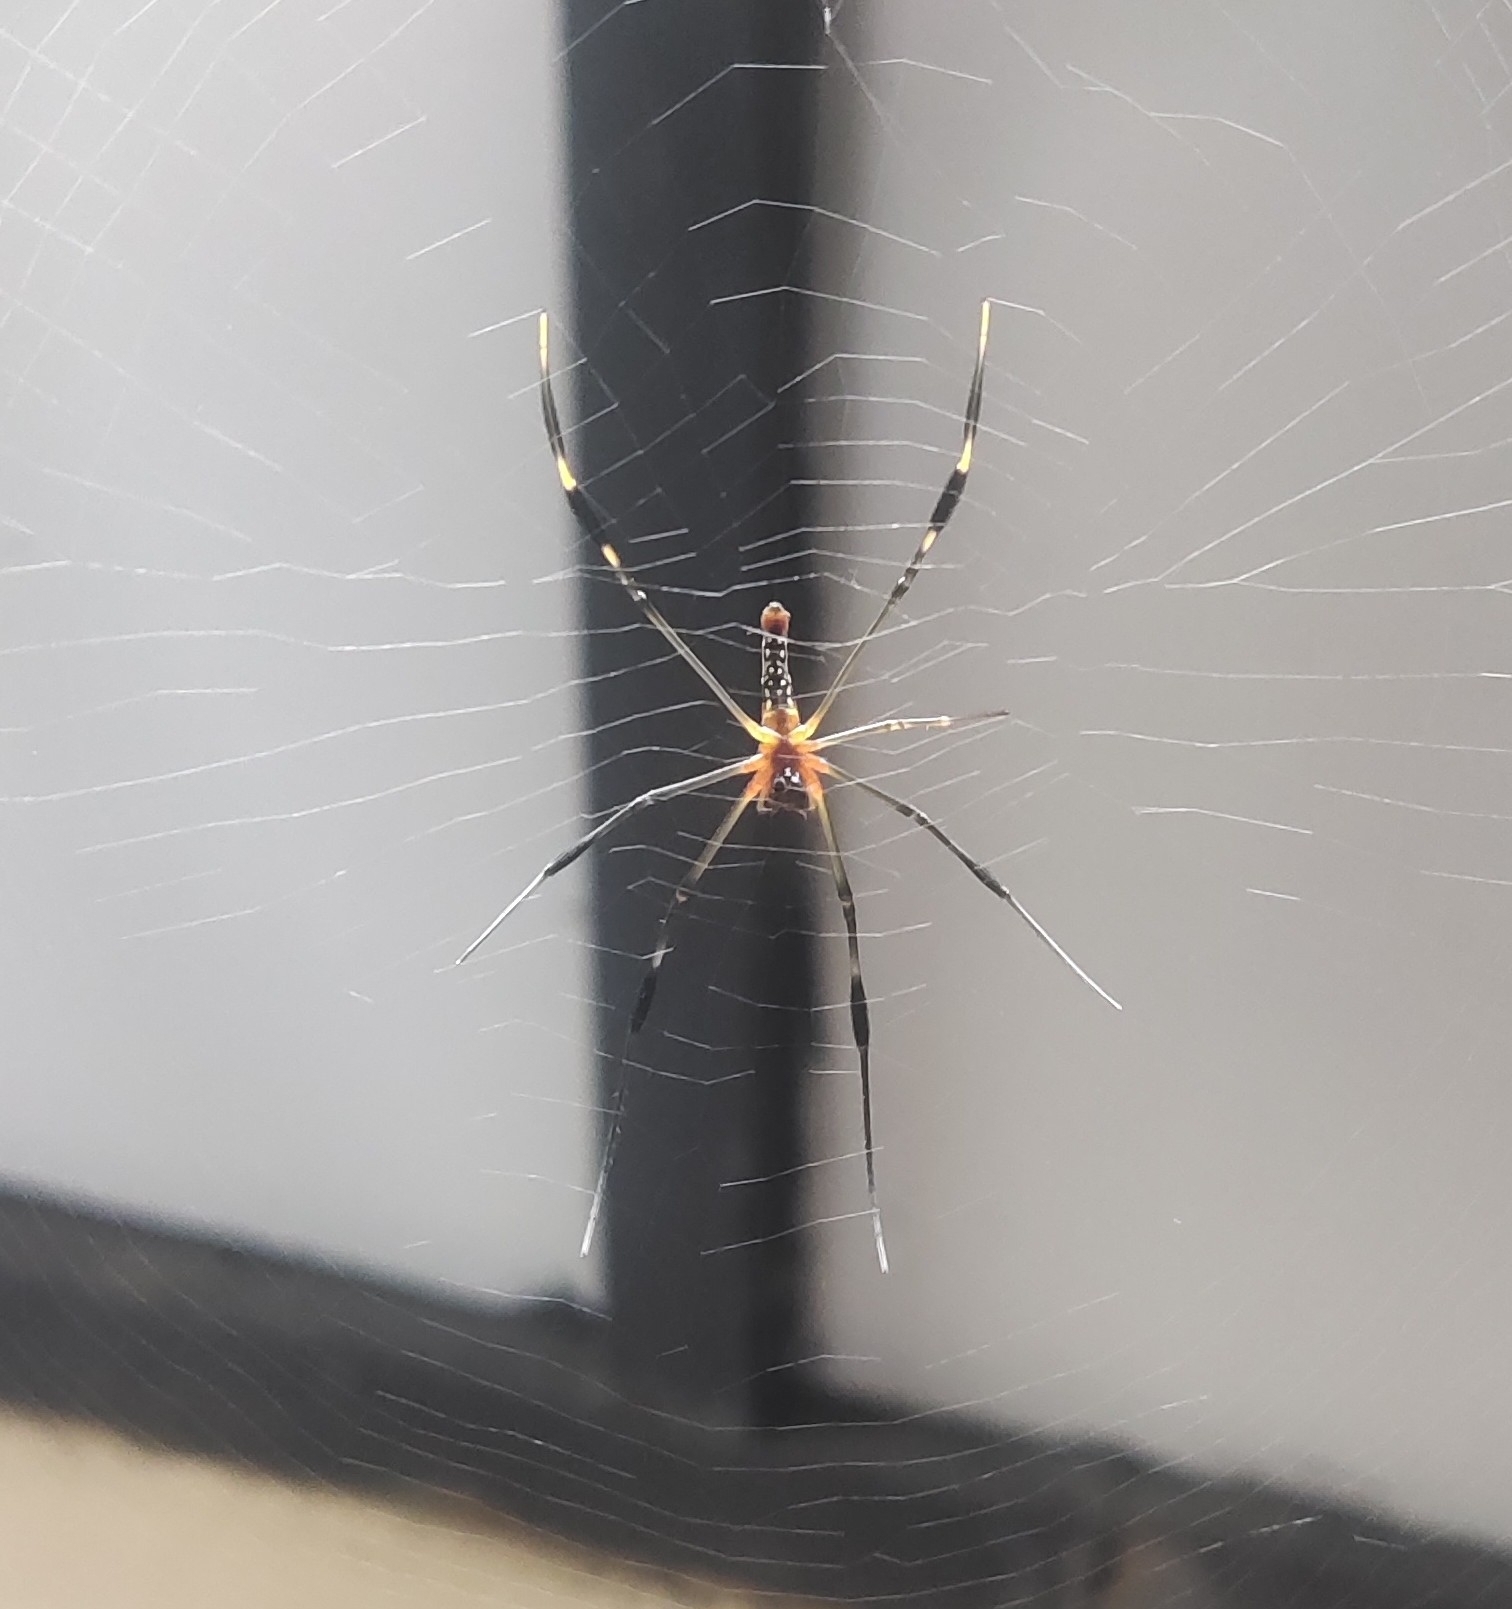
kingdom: Animalia
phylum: Arthropoda
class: Arachnida
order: Araneae
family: Araneidae
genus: Nephila
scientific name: Nephila pilipes
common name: Giant golden orb weaver
